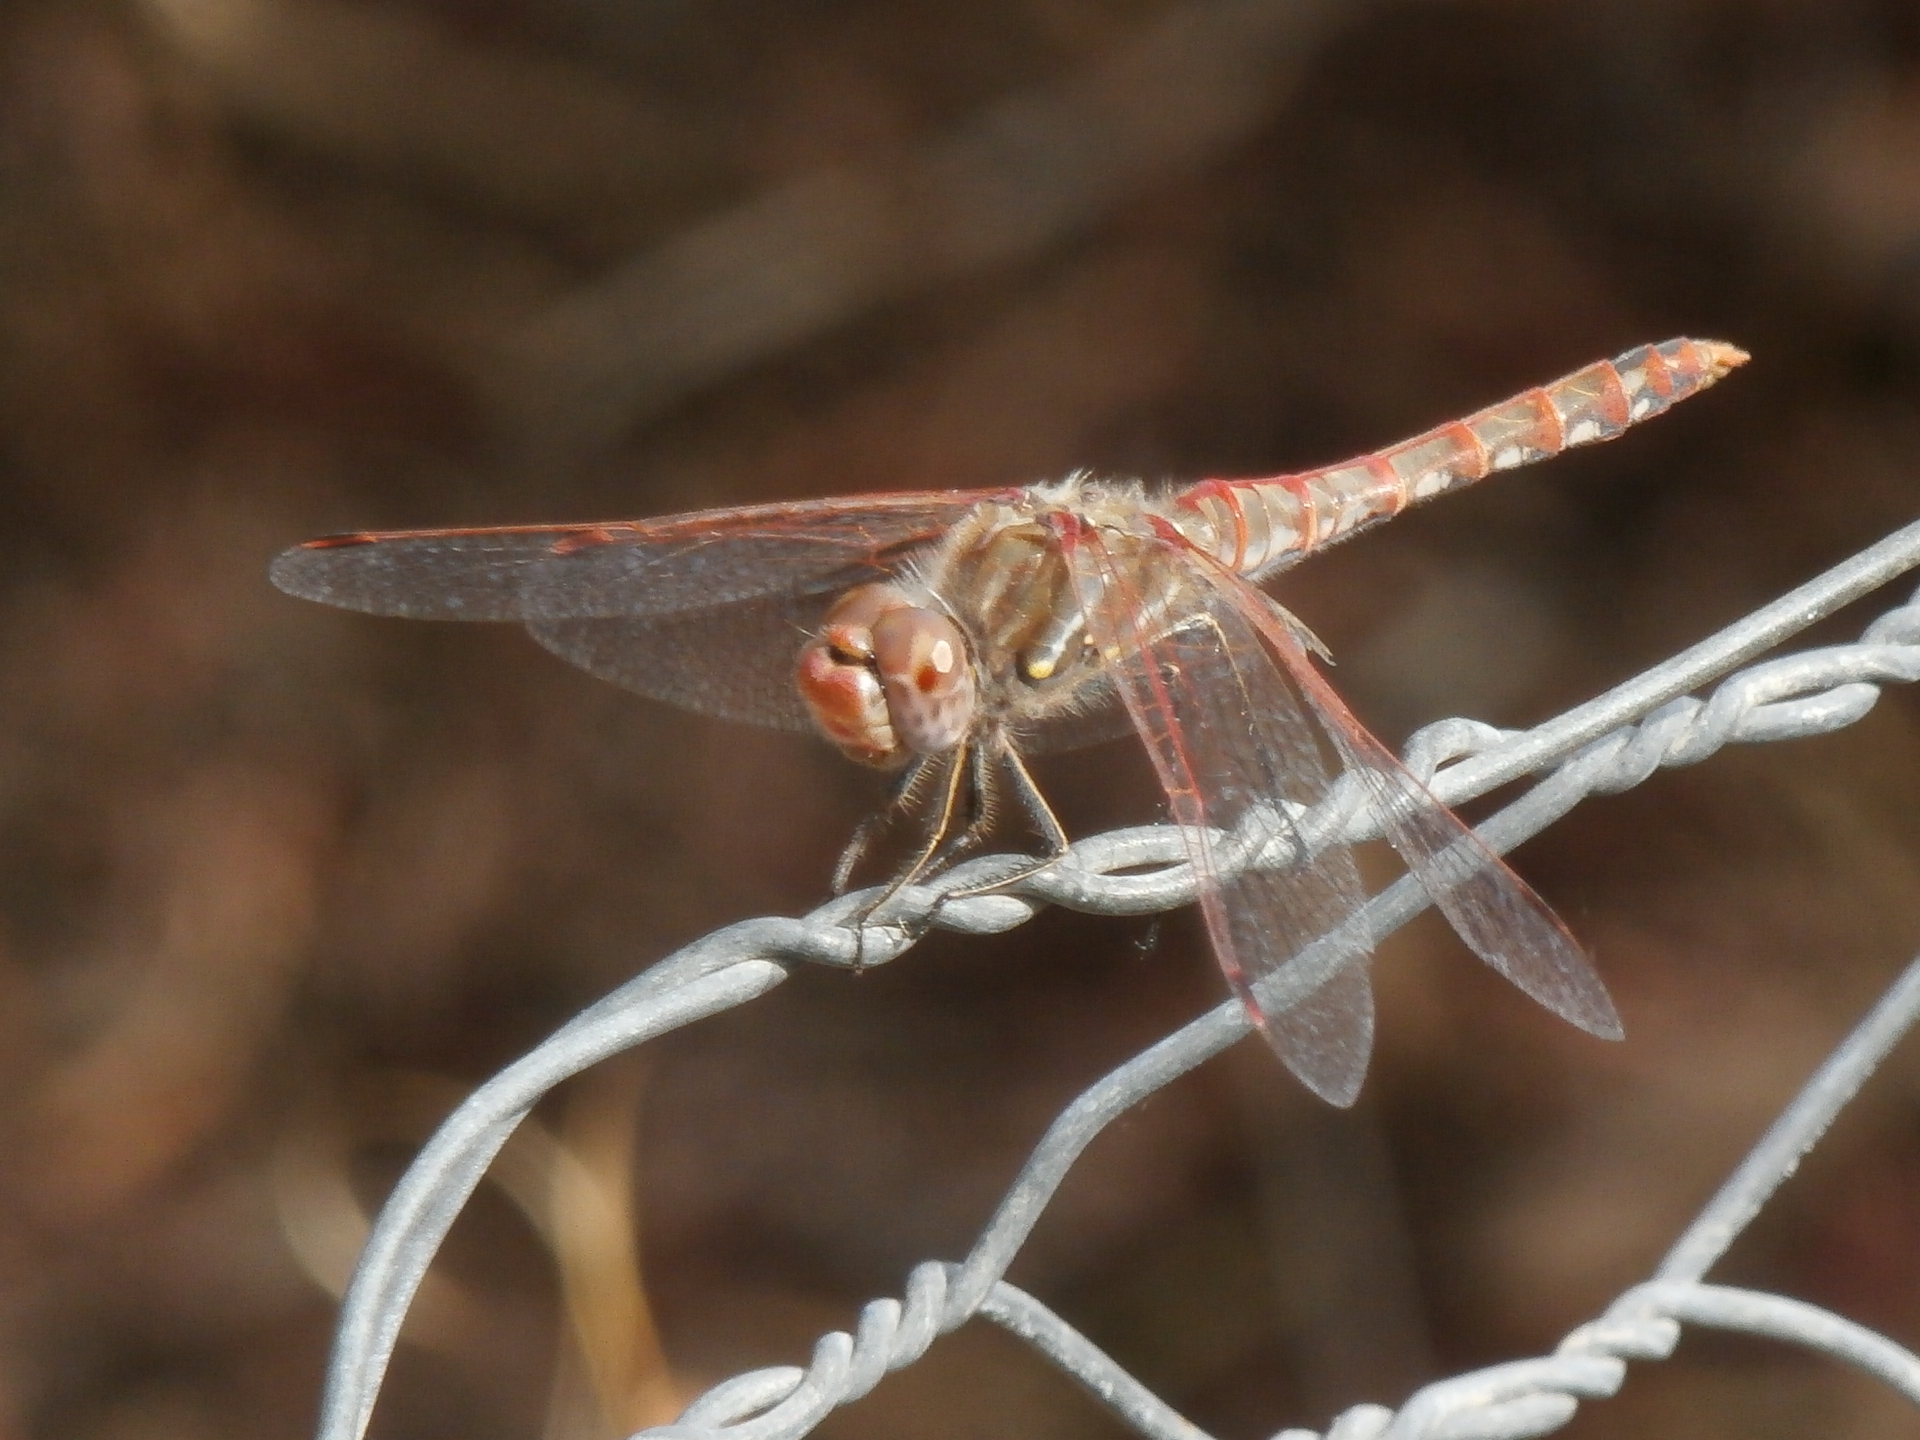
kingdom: Animalia
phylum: Arthropoda
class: Insecta
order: Odonata
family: Libellulidae
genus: Sympetrum
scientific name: Sympetrum corruptum
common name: Variegated meadowhawk
